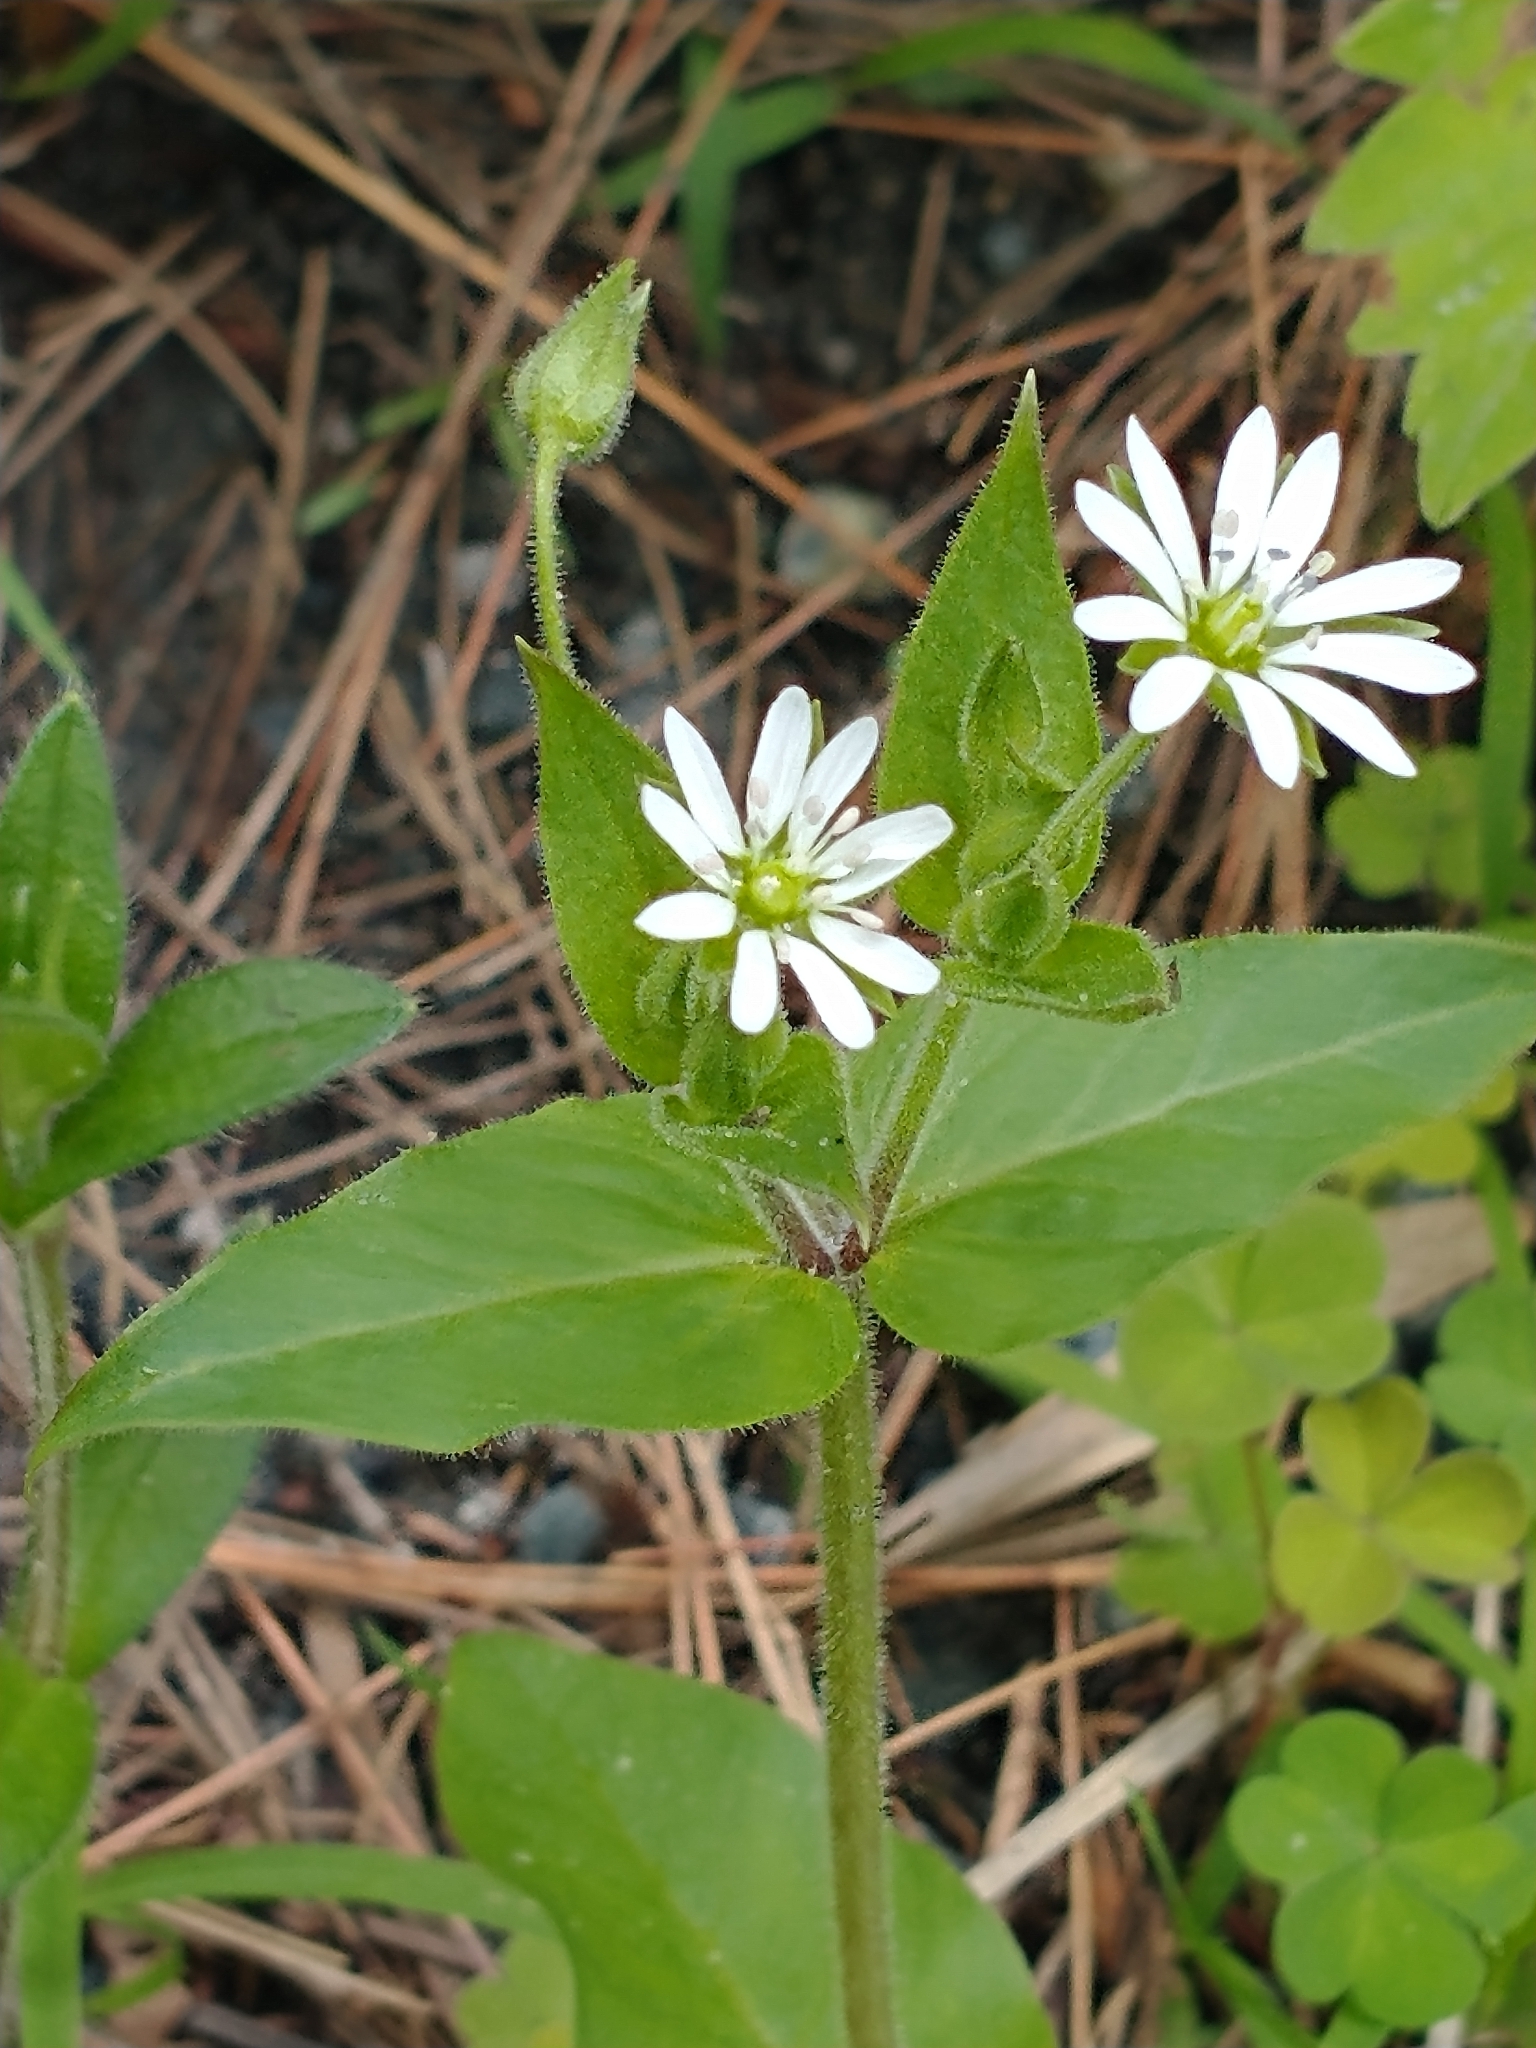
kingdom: Plantae
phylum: Tracheophyta
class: Magnoliopsida
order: Caryophyllales
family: Caryophyllaceae
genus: Stellaria
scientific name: Stellaria aquatica
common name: Water chickweed
